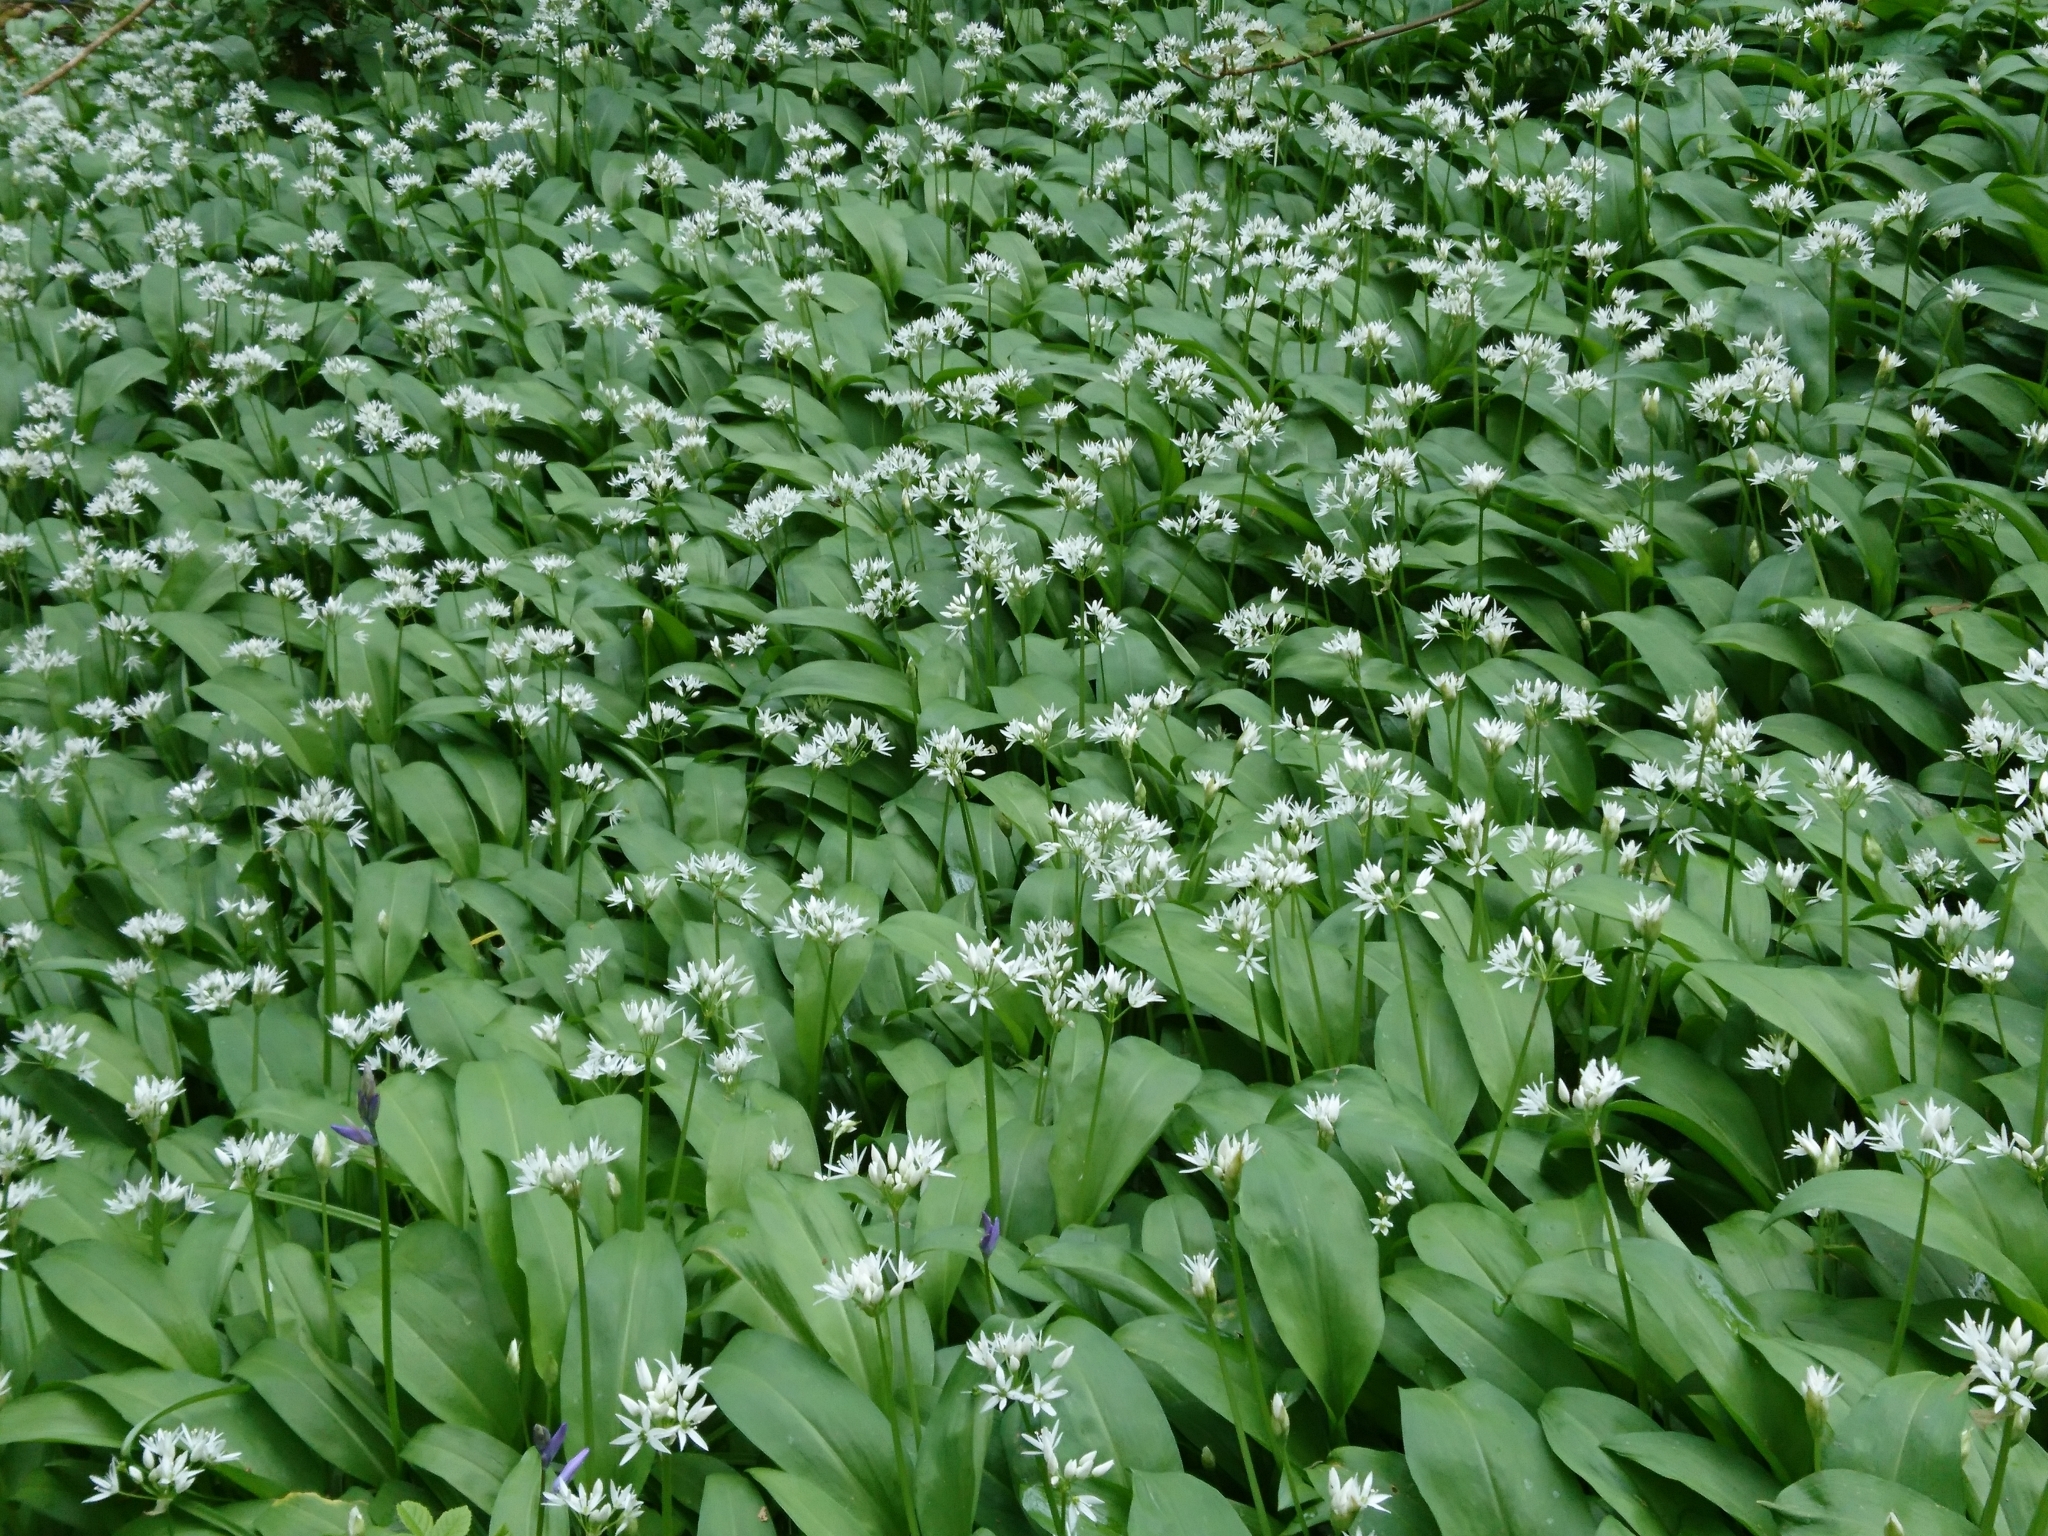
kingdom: Plantae
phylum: Tracheophyta
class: Liliopsida
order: Asparagales
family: Amaryllidaceae
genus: Allium
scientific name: Allium ursinum
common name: Ramsons
